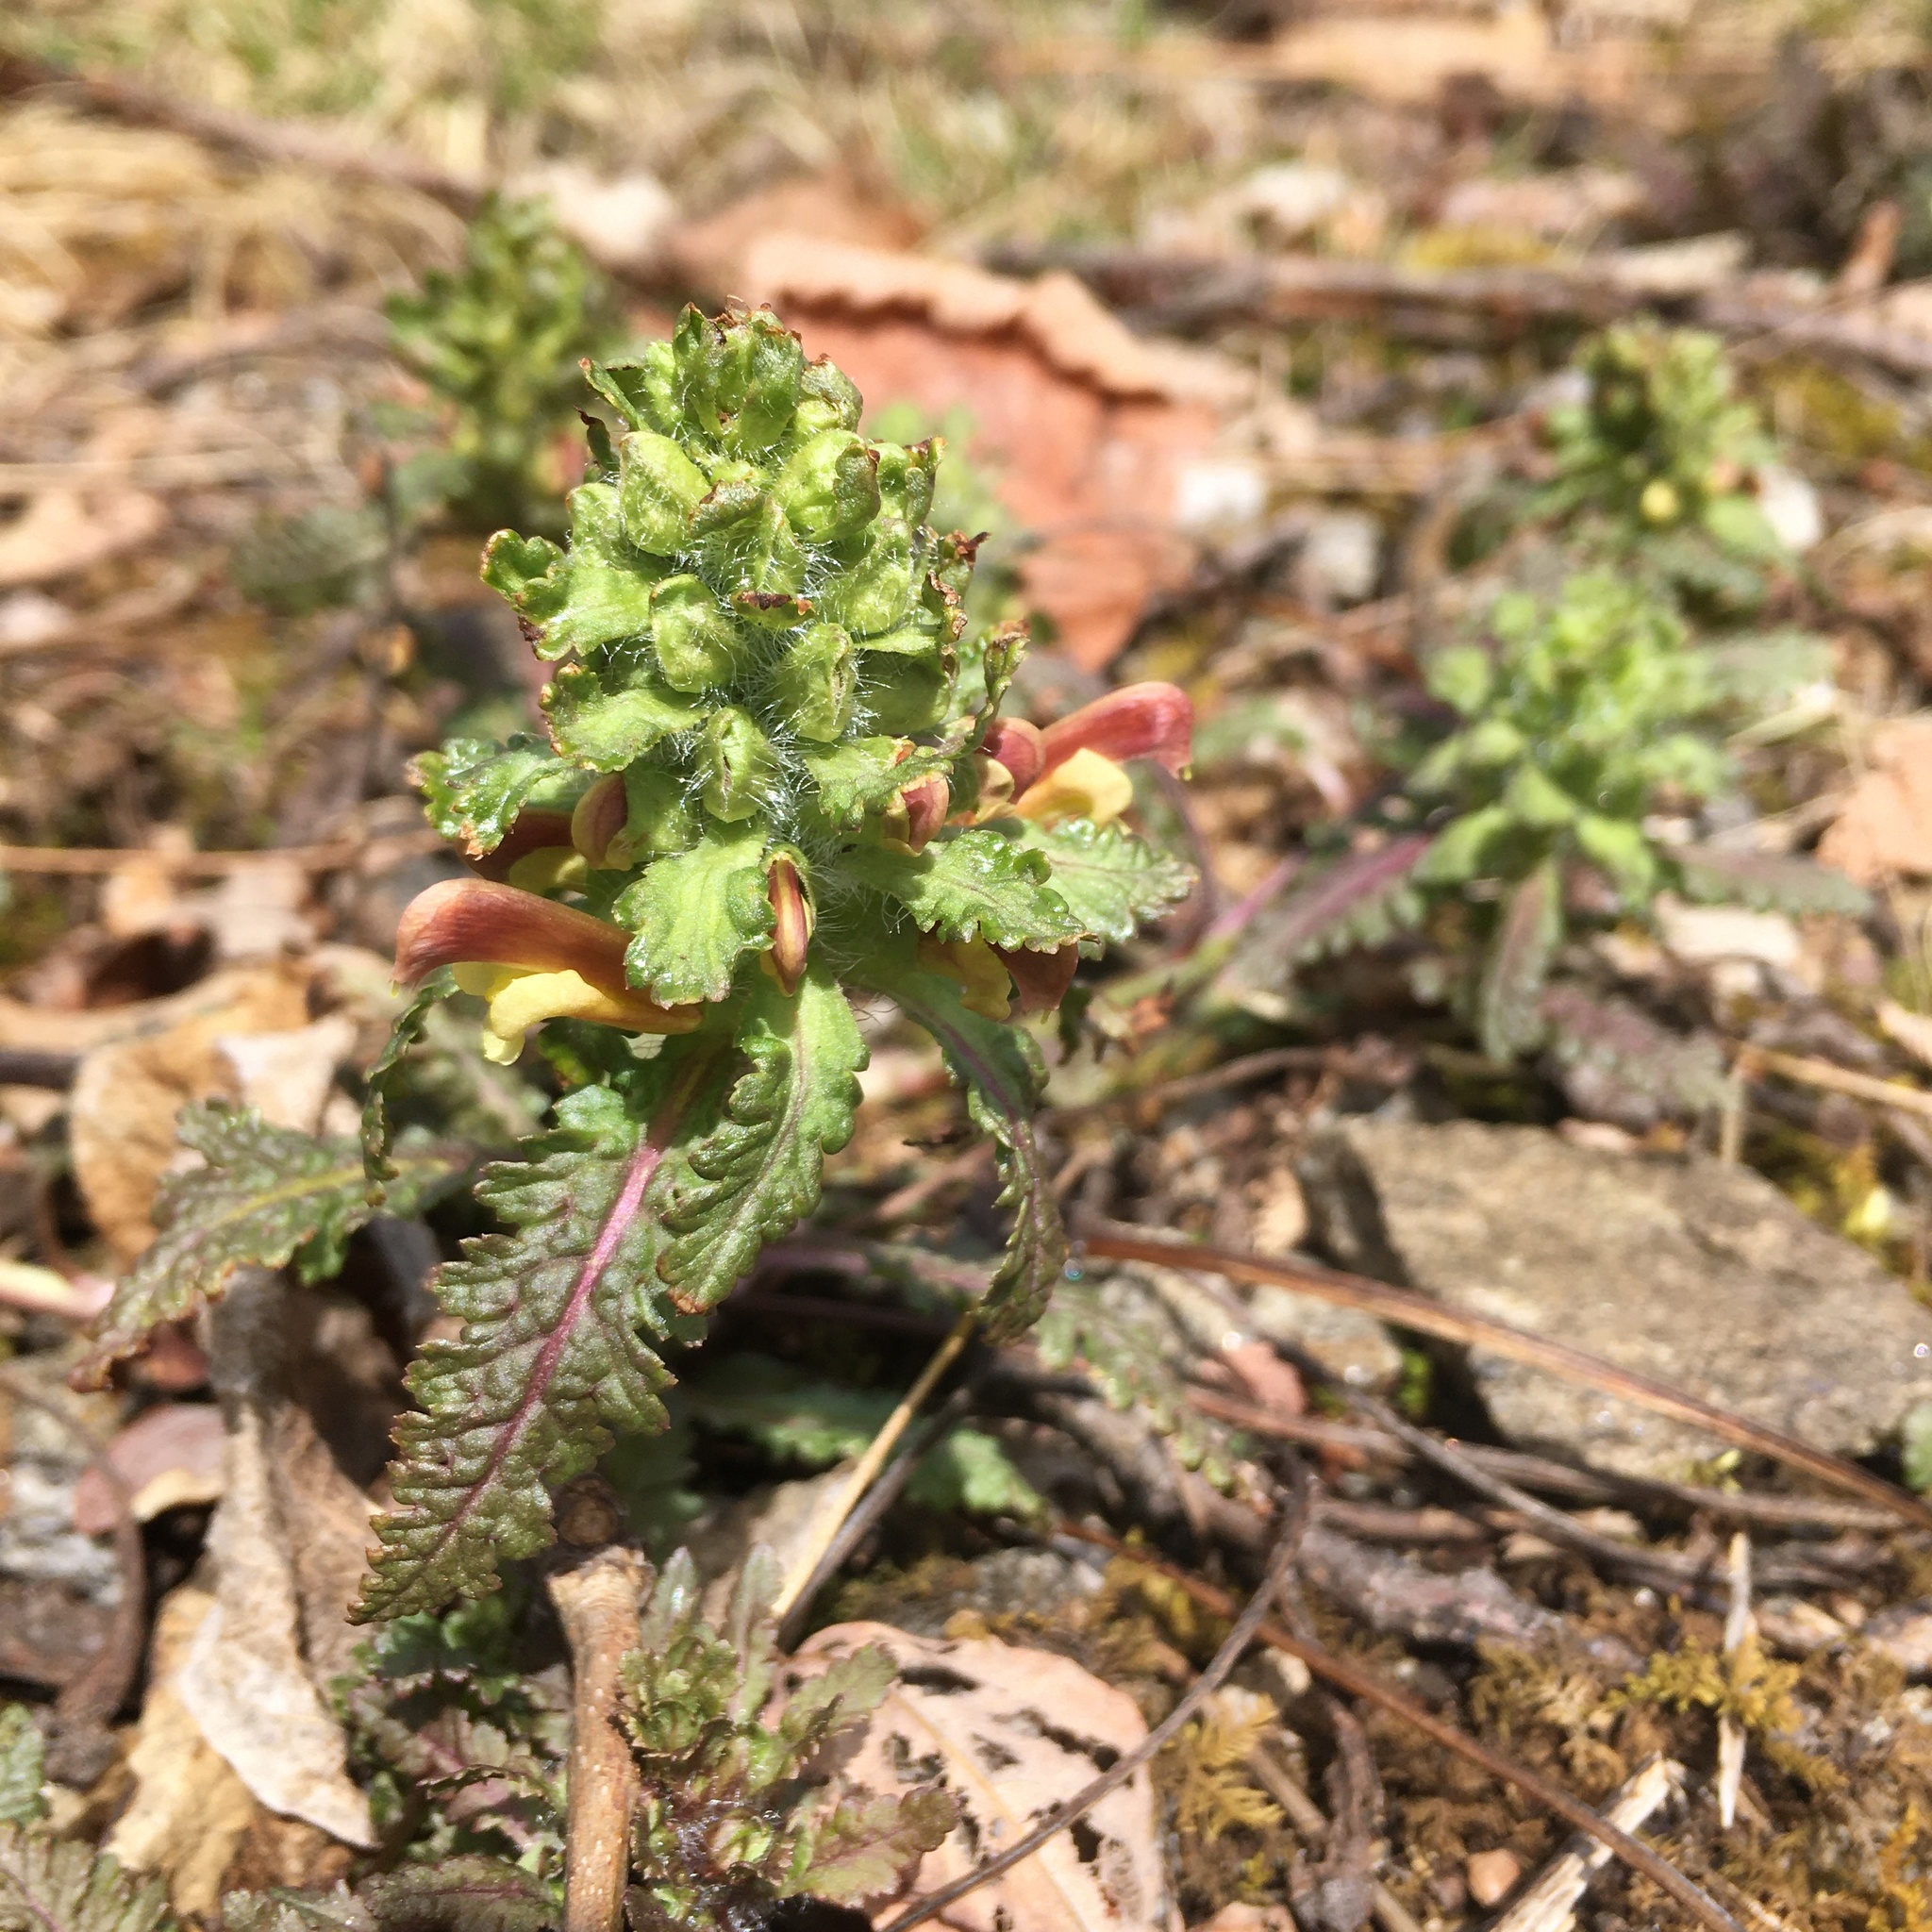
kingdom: Plantae
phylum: Tracheophyta
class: Magnoliopsida
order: Lamiales
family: Orobanchaceae
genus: Pedicularis
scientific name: Pedicularis canadensis
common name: Early lousewort
